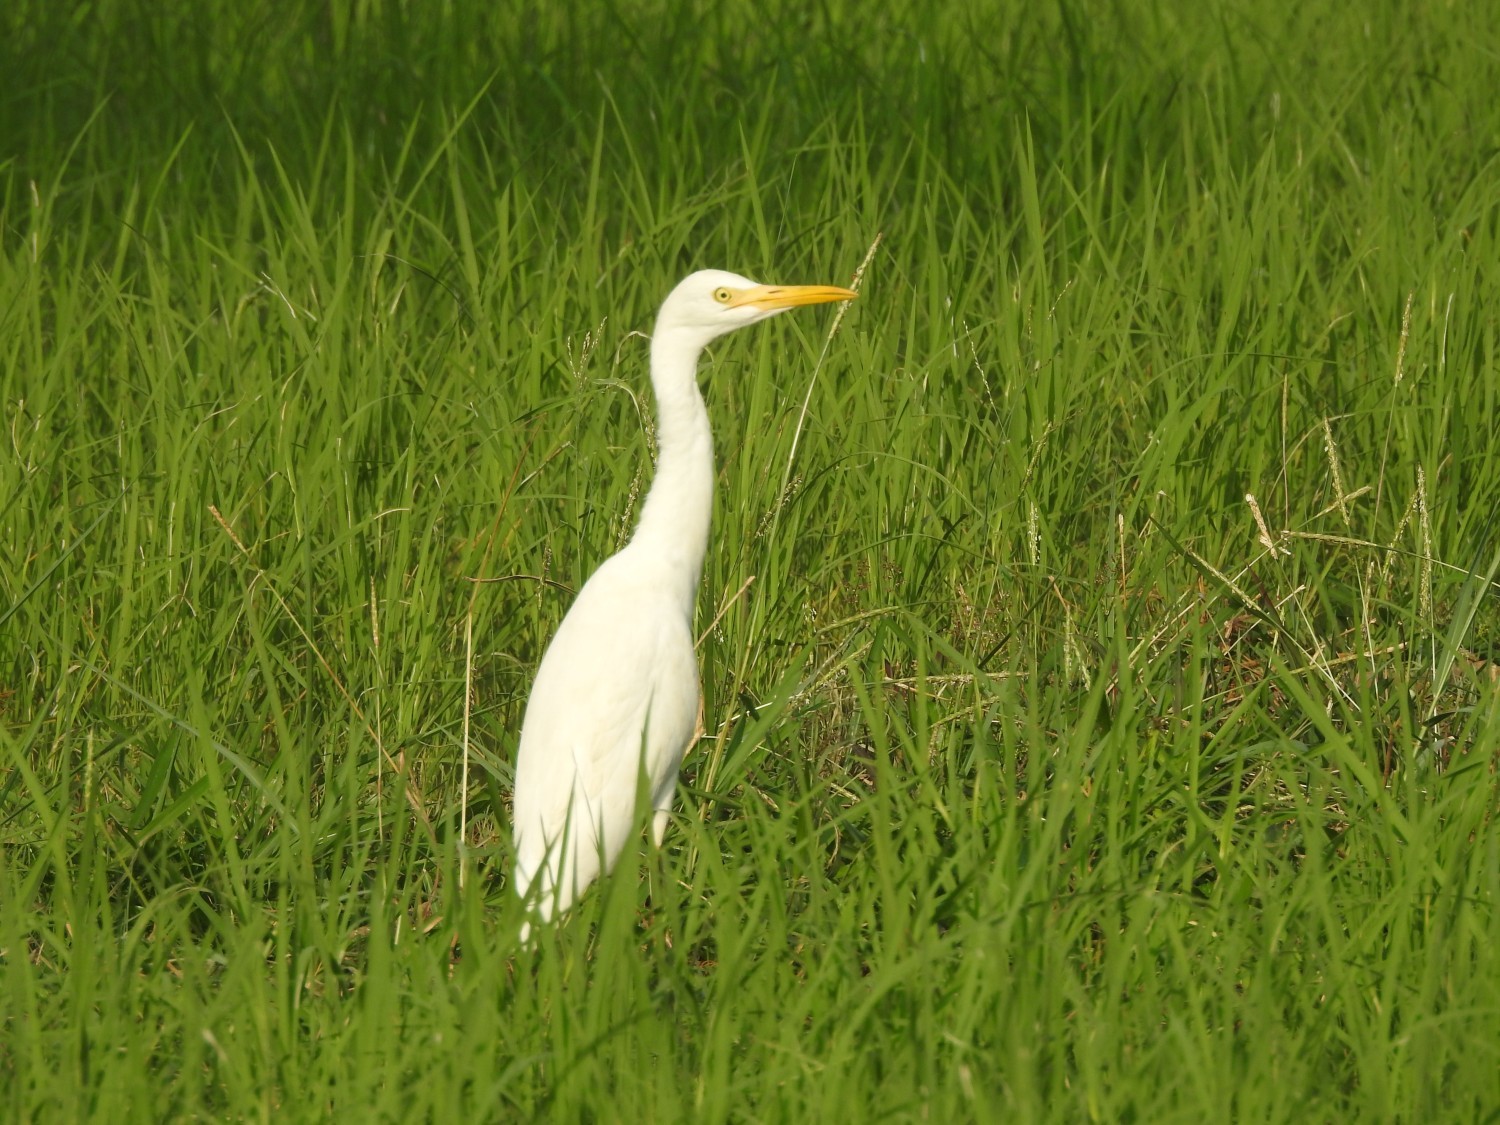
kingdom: Animalia
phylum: Chordata
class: Aves
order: Pelecaniformes
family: Ardeidae
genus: Bubulcus
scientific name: Bubulcus coromandus
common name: Eastern cattle egret
